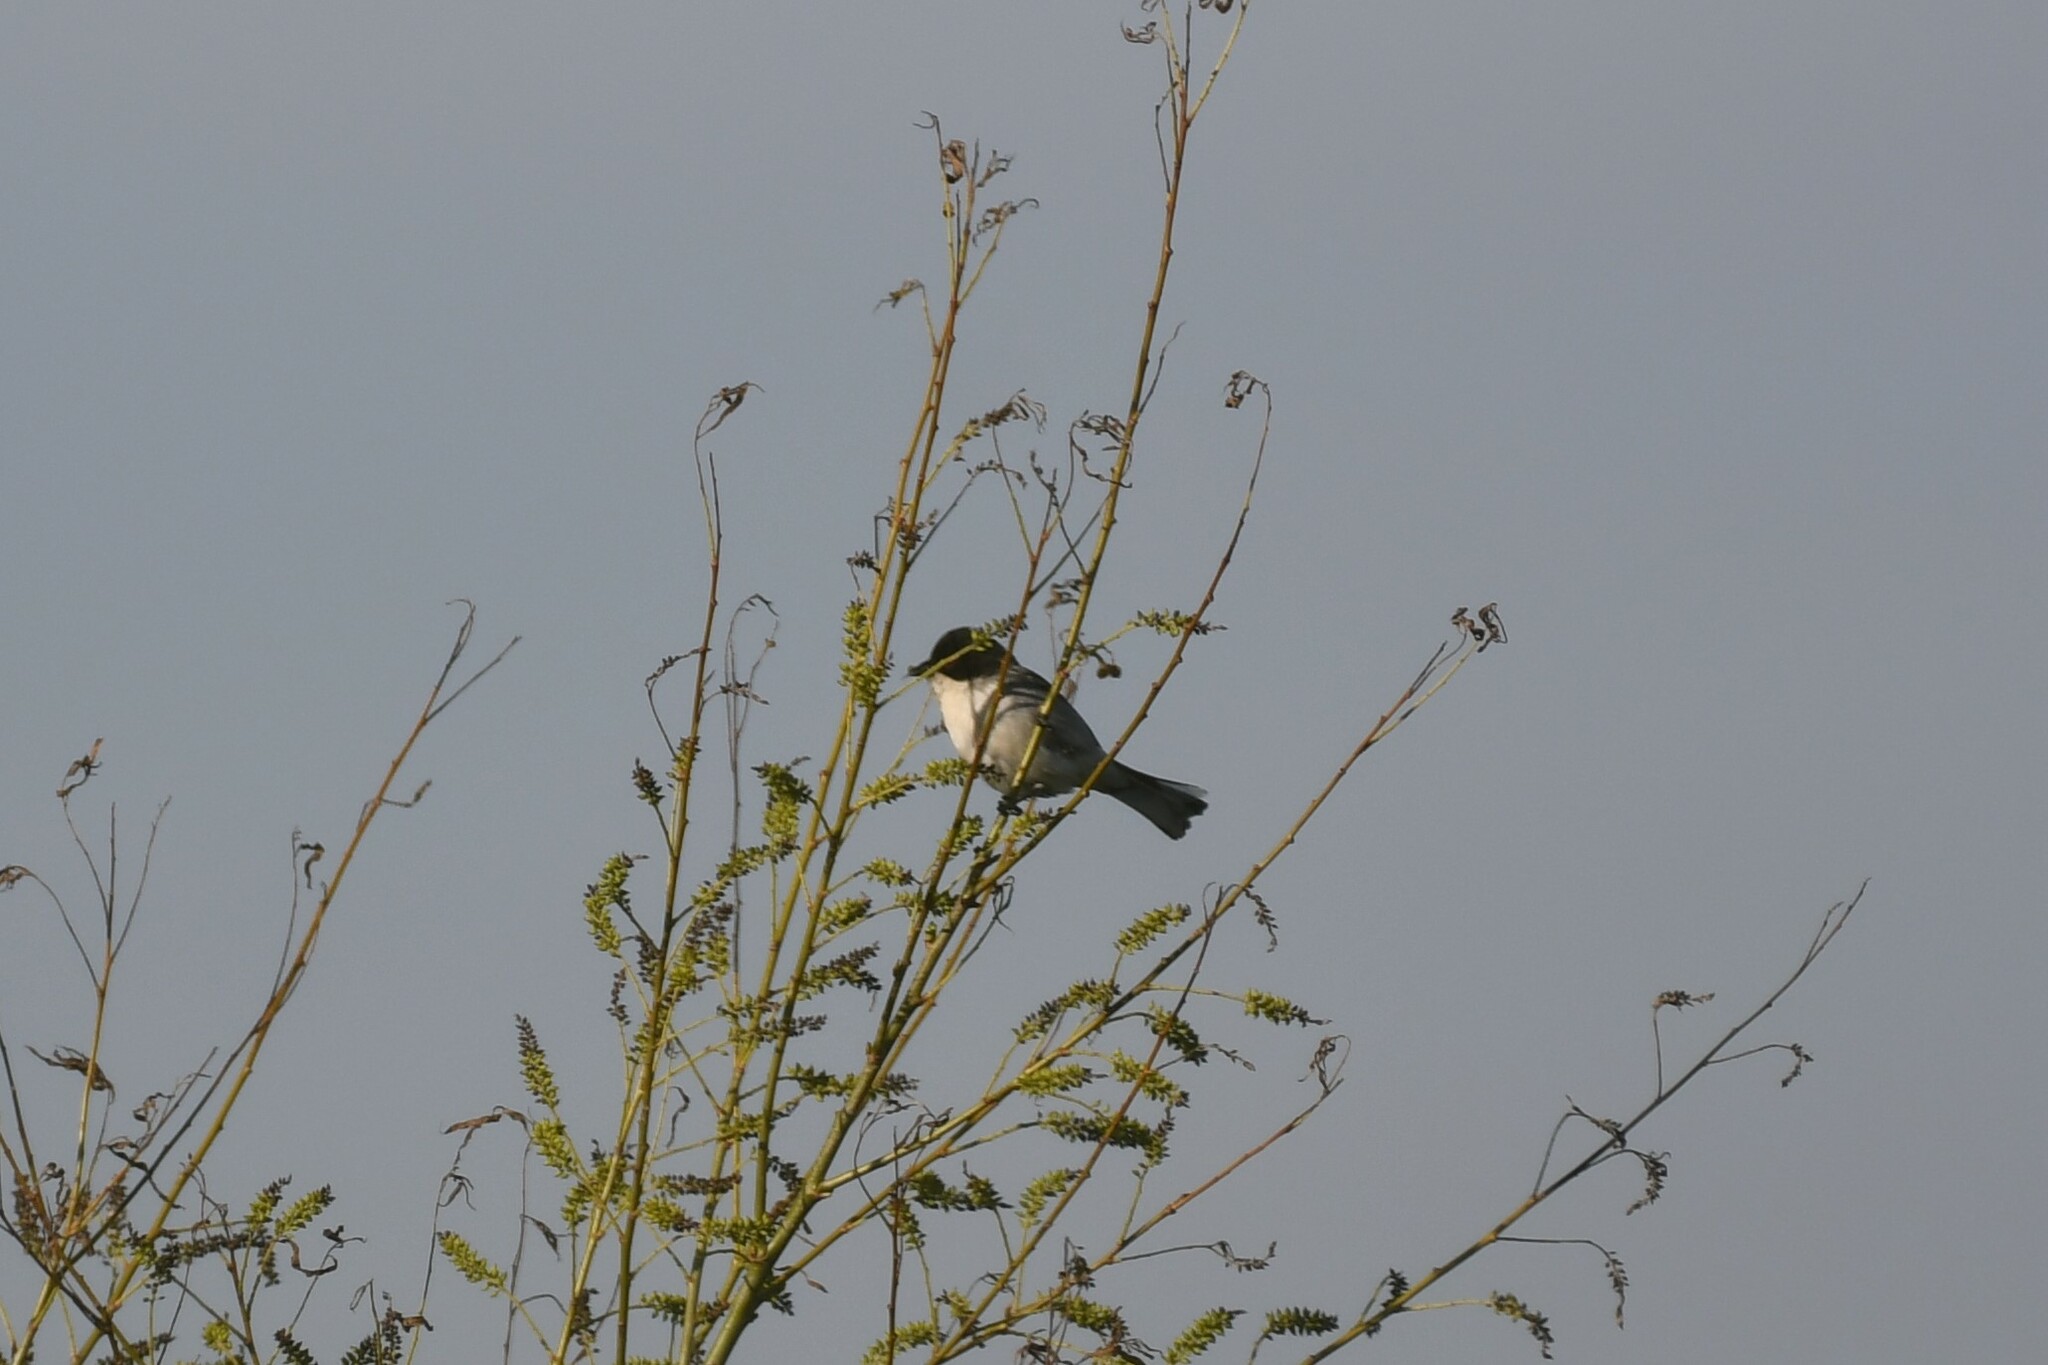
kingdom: Animalia
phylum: Chordata
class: Aves
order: Passeriformes
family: Thraupidae
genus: Microspingus
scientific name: Microspingus melanoleucus
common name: Black-capped warbling-finch
